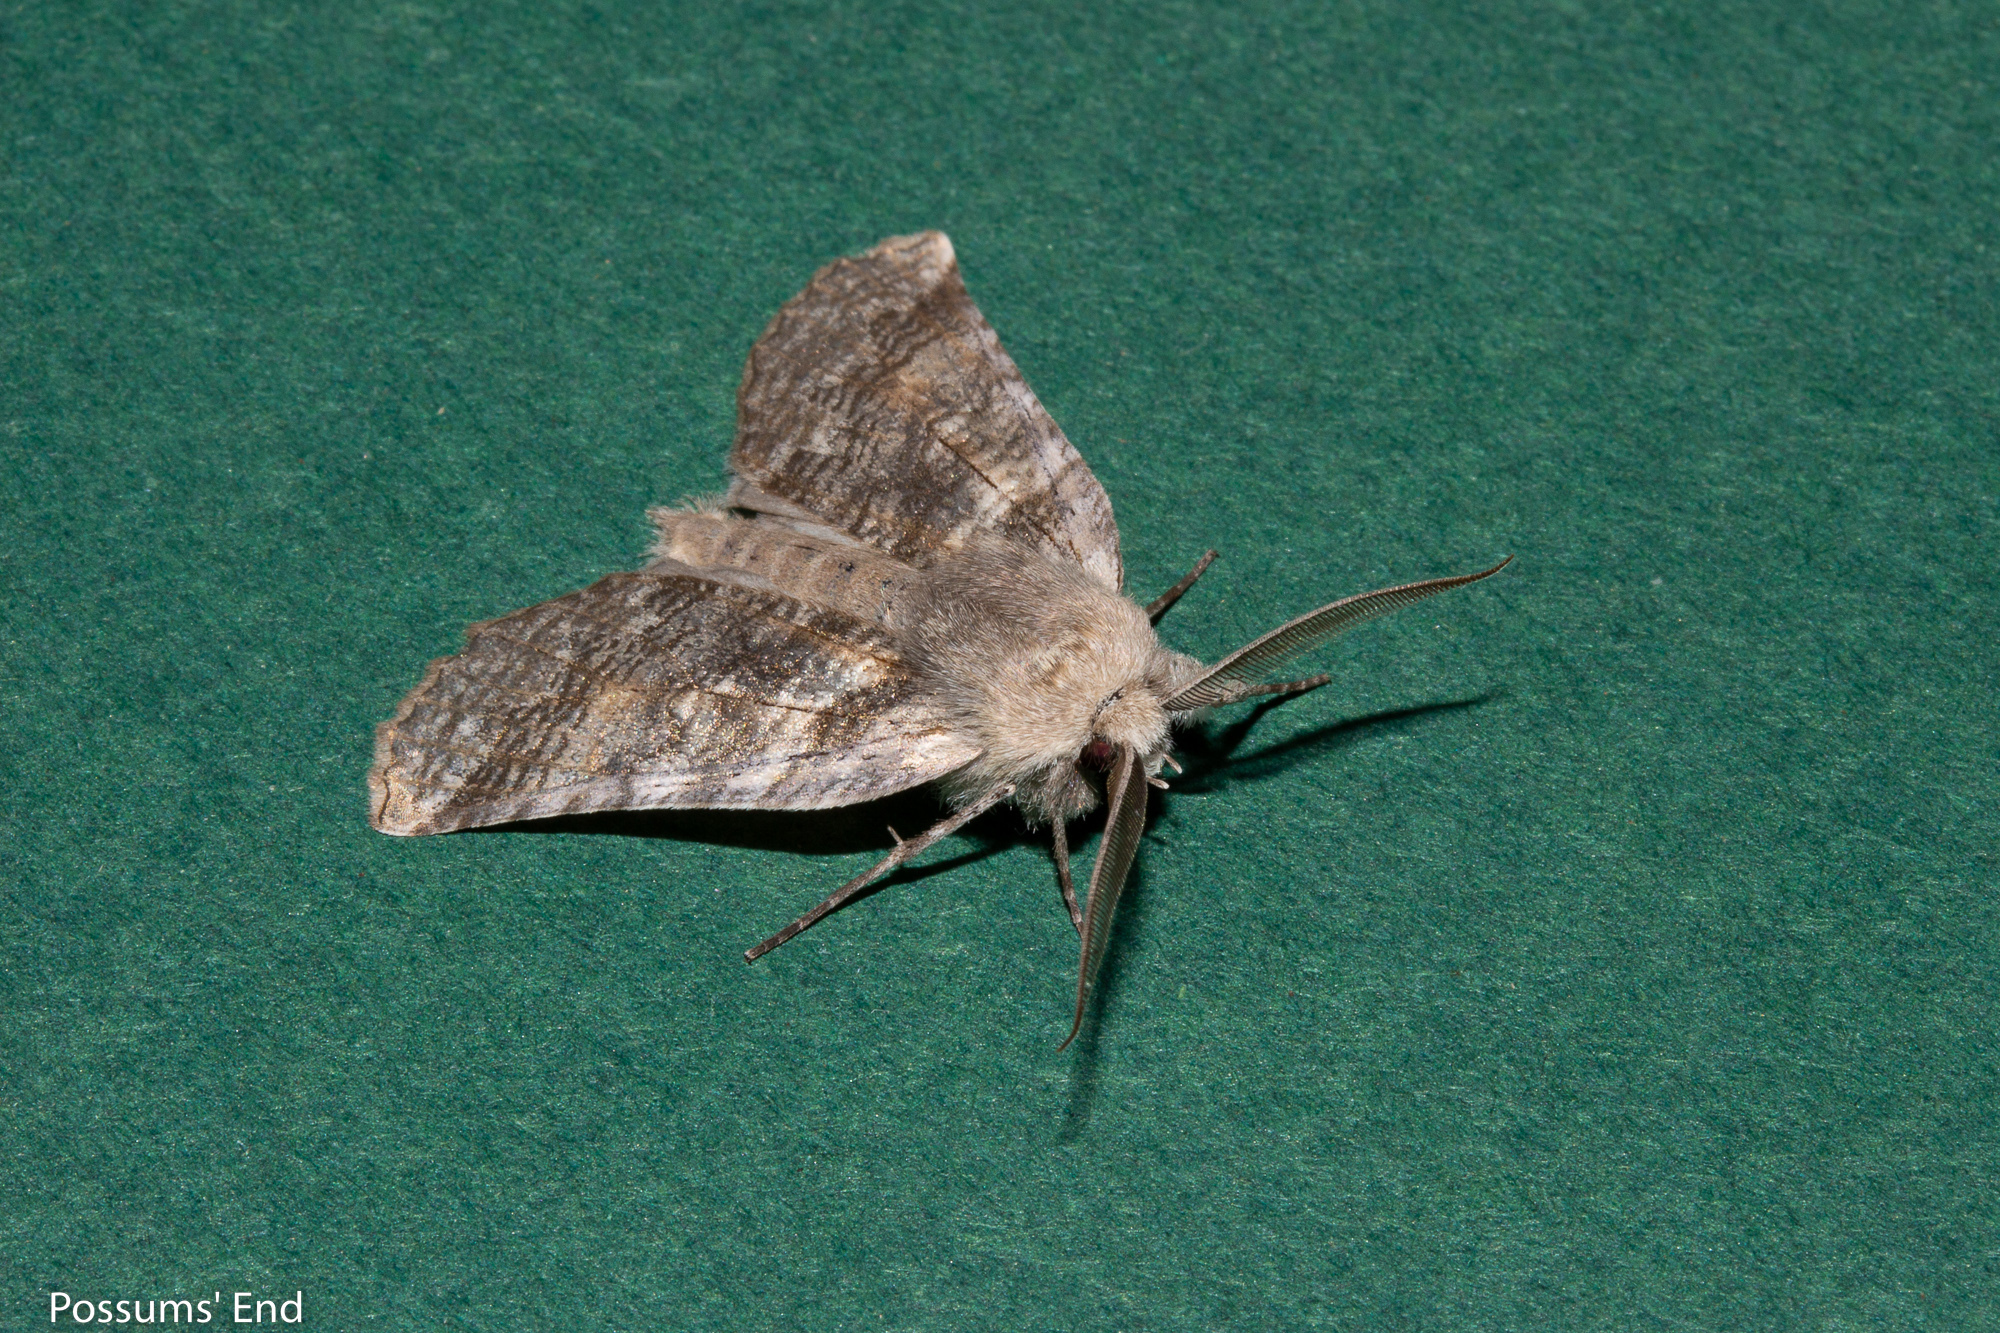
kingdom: Animalia
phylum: Arthropoda
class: Insecta
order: Lepidoptera
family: Geometridae
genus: Declana
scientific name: Declana
